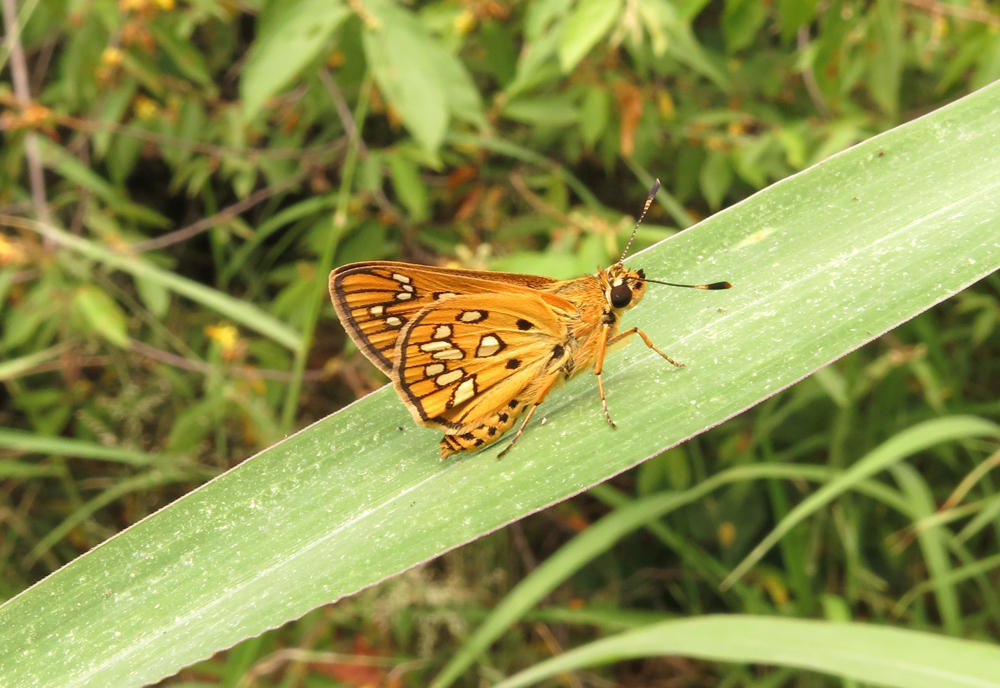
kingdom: Animalia
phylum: Arthropoda
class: Insecta
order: Lepidoptera
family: Hesperiidae
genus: Dotta
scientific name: Dotta
